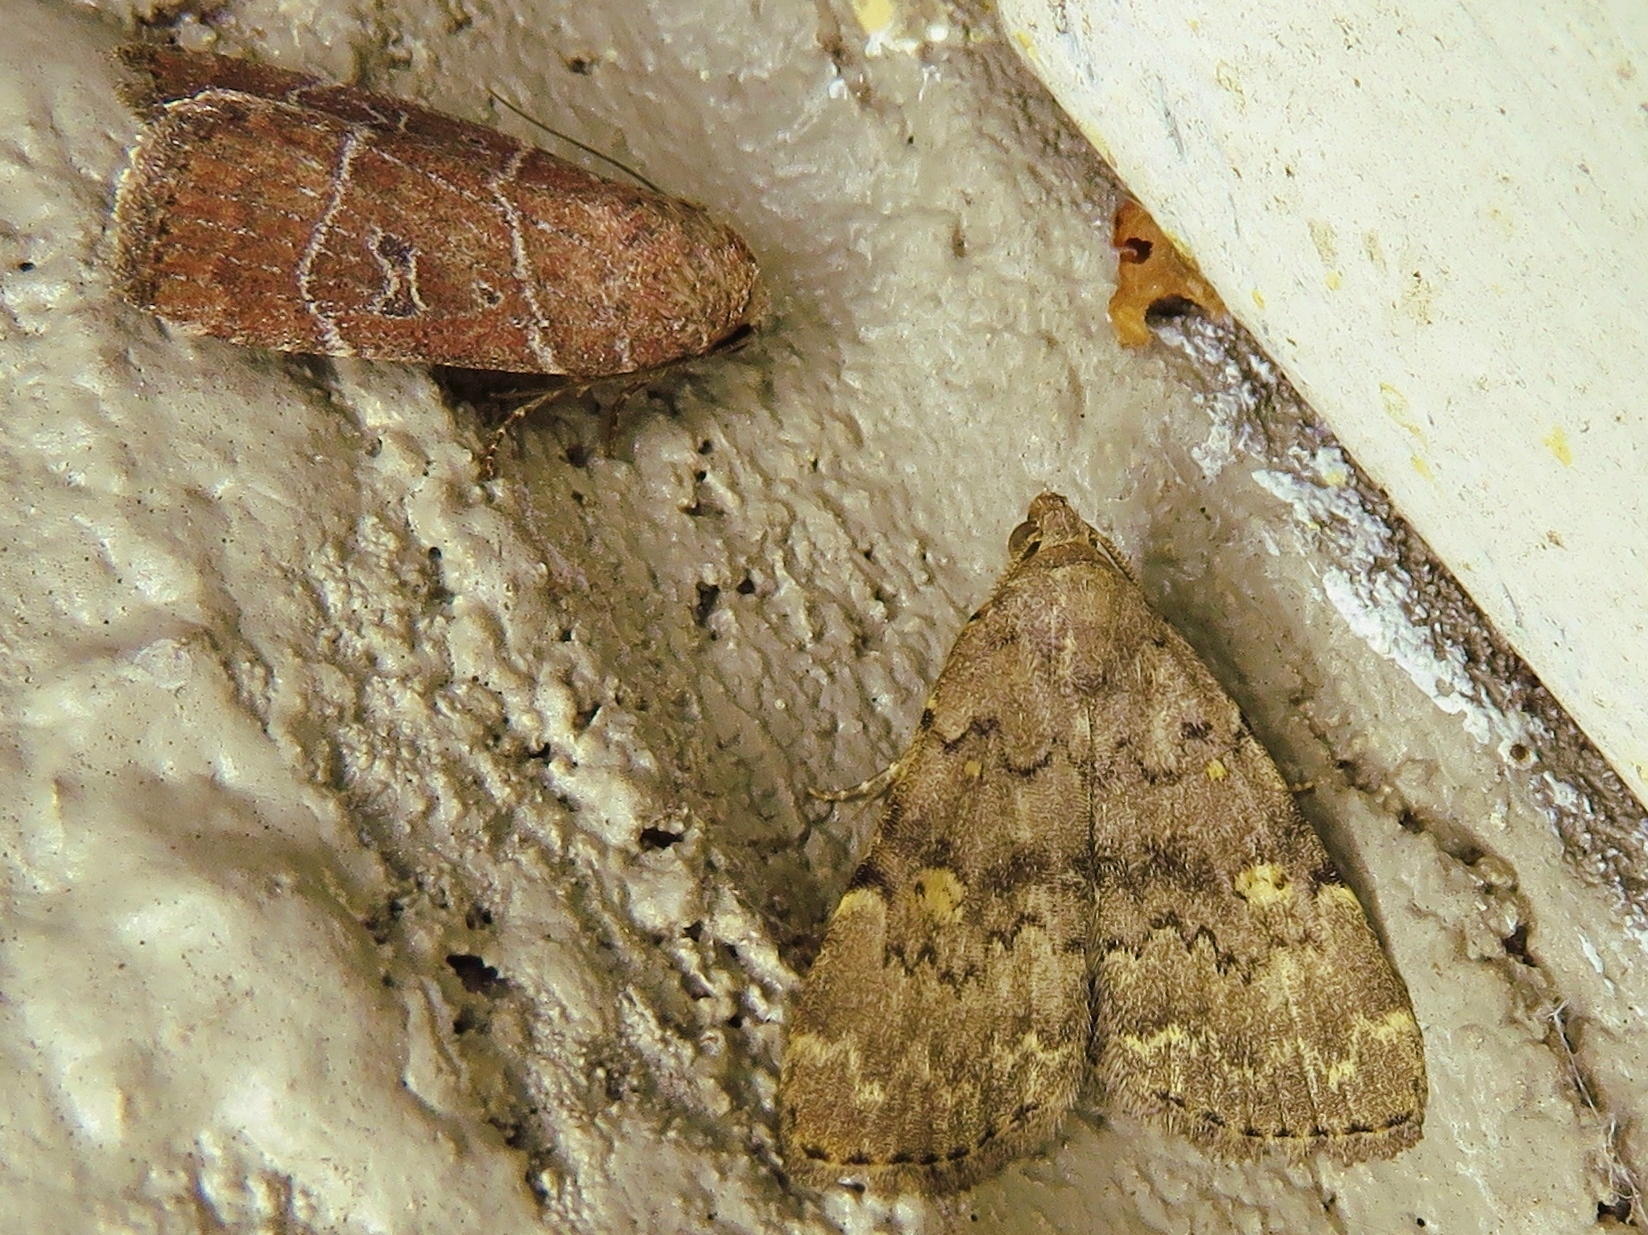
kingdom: Animalia
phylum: Arthropoda
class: Insecta
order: Lepidoptera
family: Noctuidae
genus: Elaphria
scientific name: Elaphria grata
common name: Grateful midget moth
